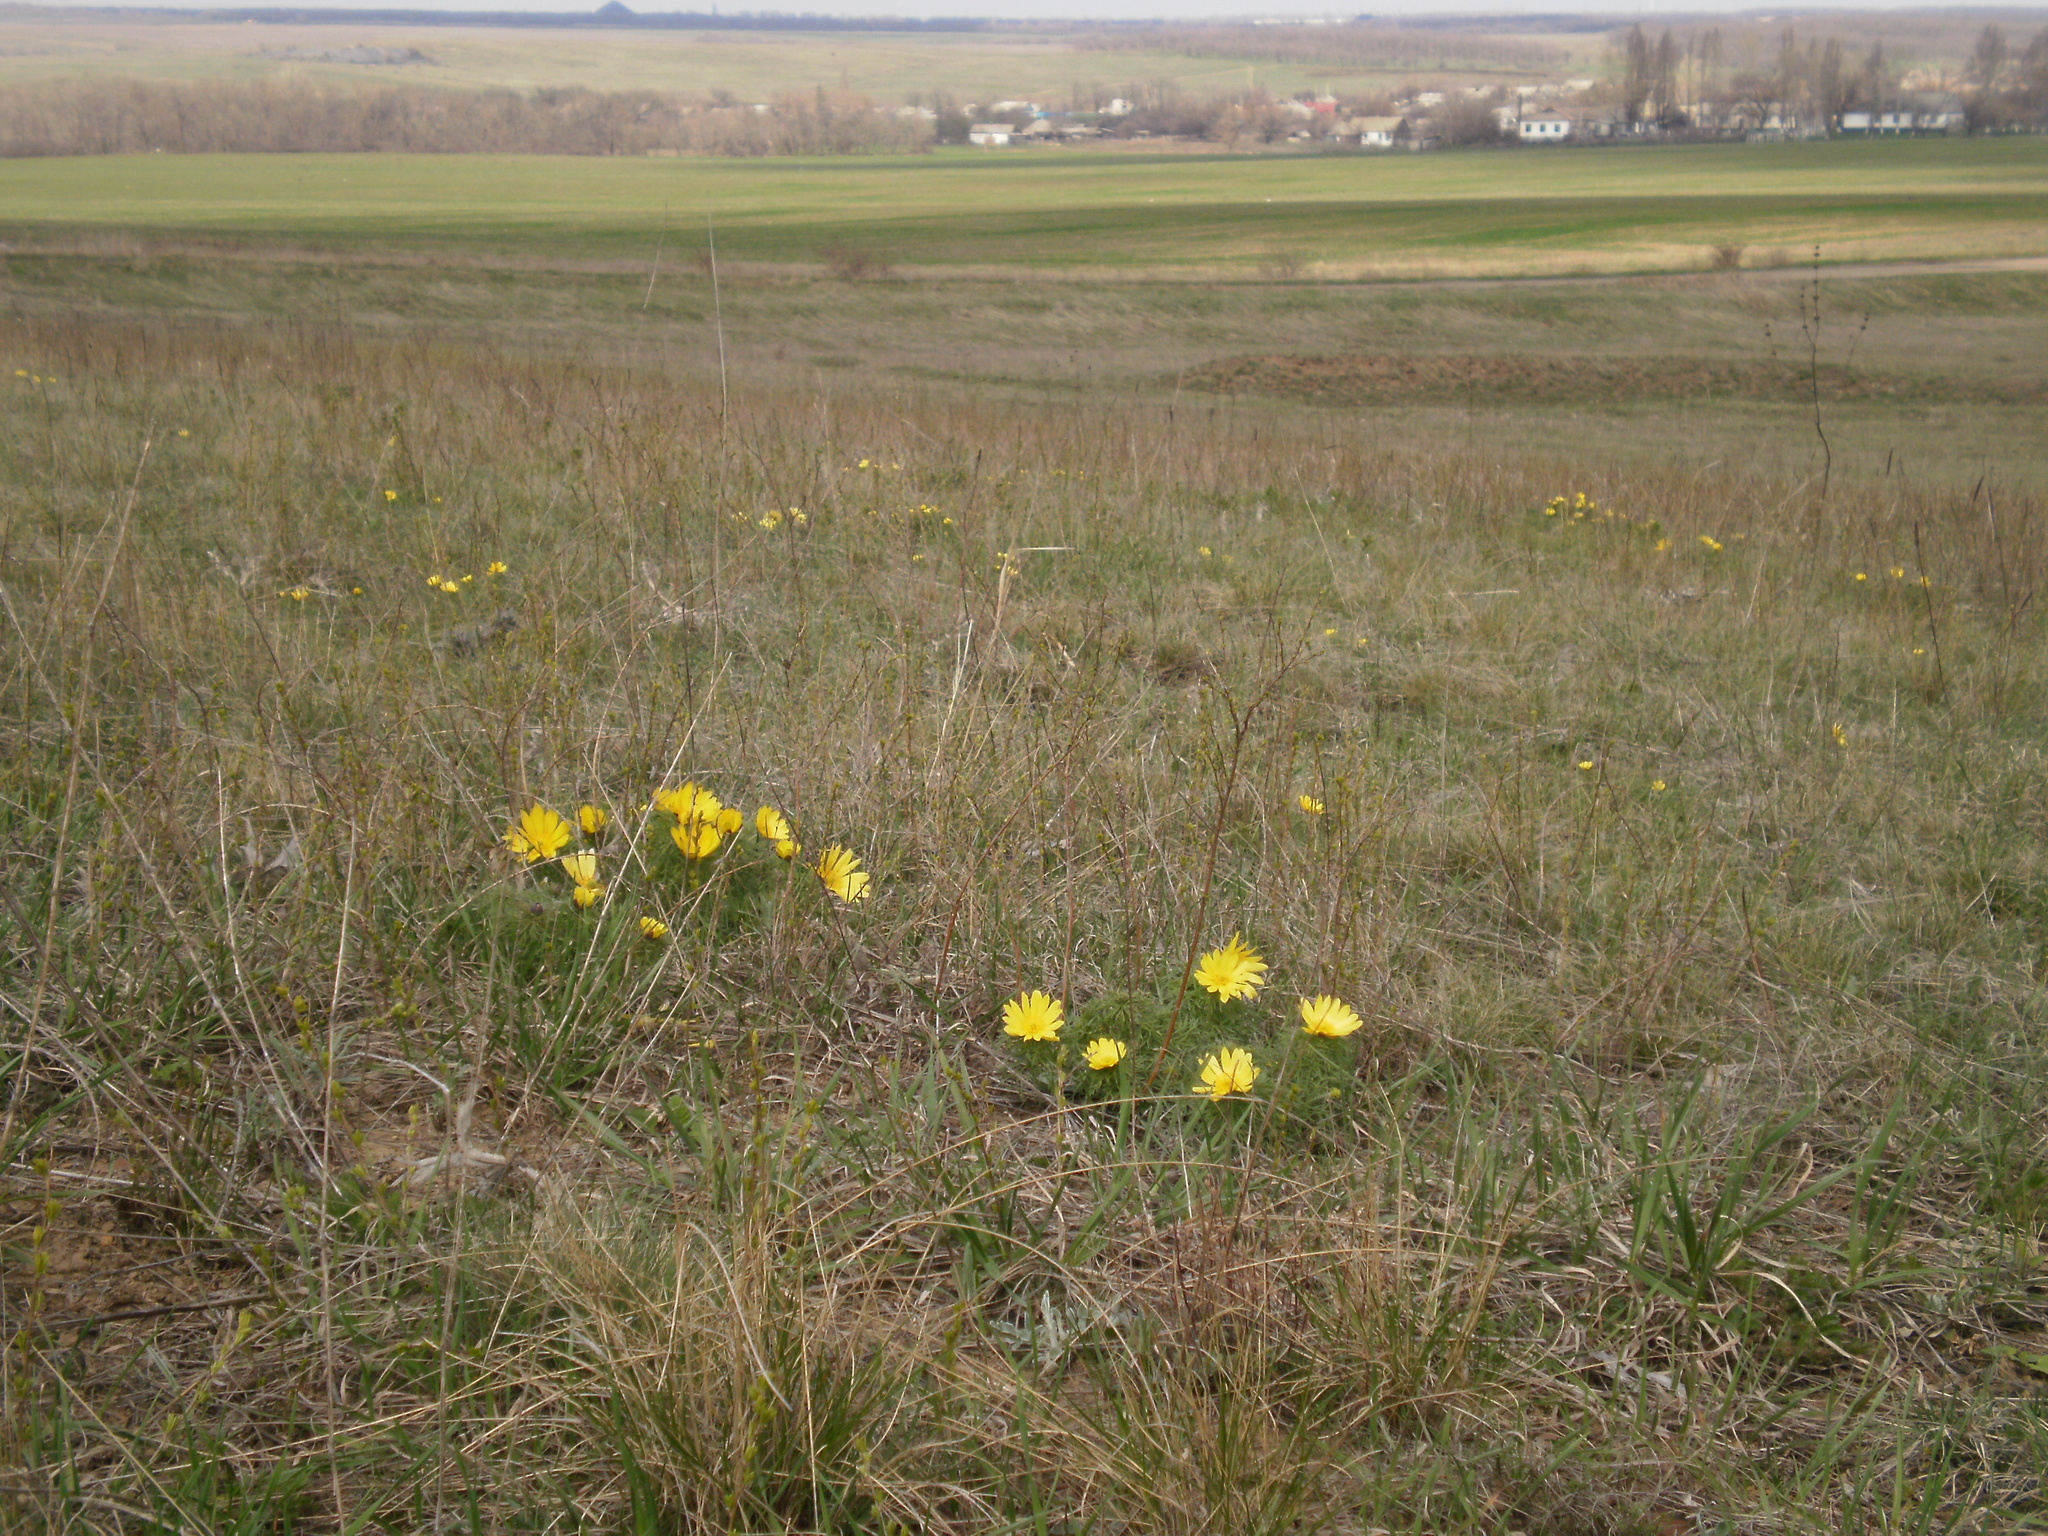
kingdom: Plantae
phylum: Tracheophyta
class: Magnoliopsida
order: Ranunculales
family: Ranunculaceae
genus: Adonis
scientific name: Adonis vernalis
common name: Yellow pheasants-eye
